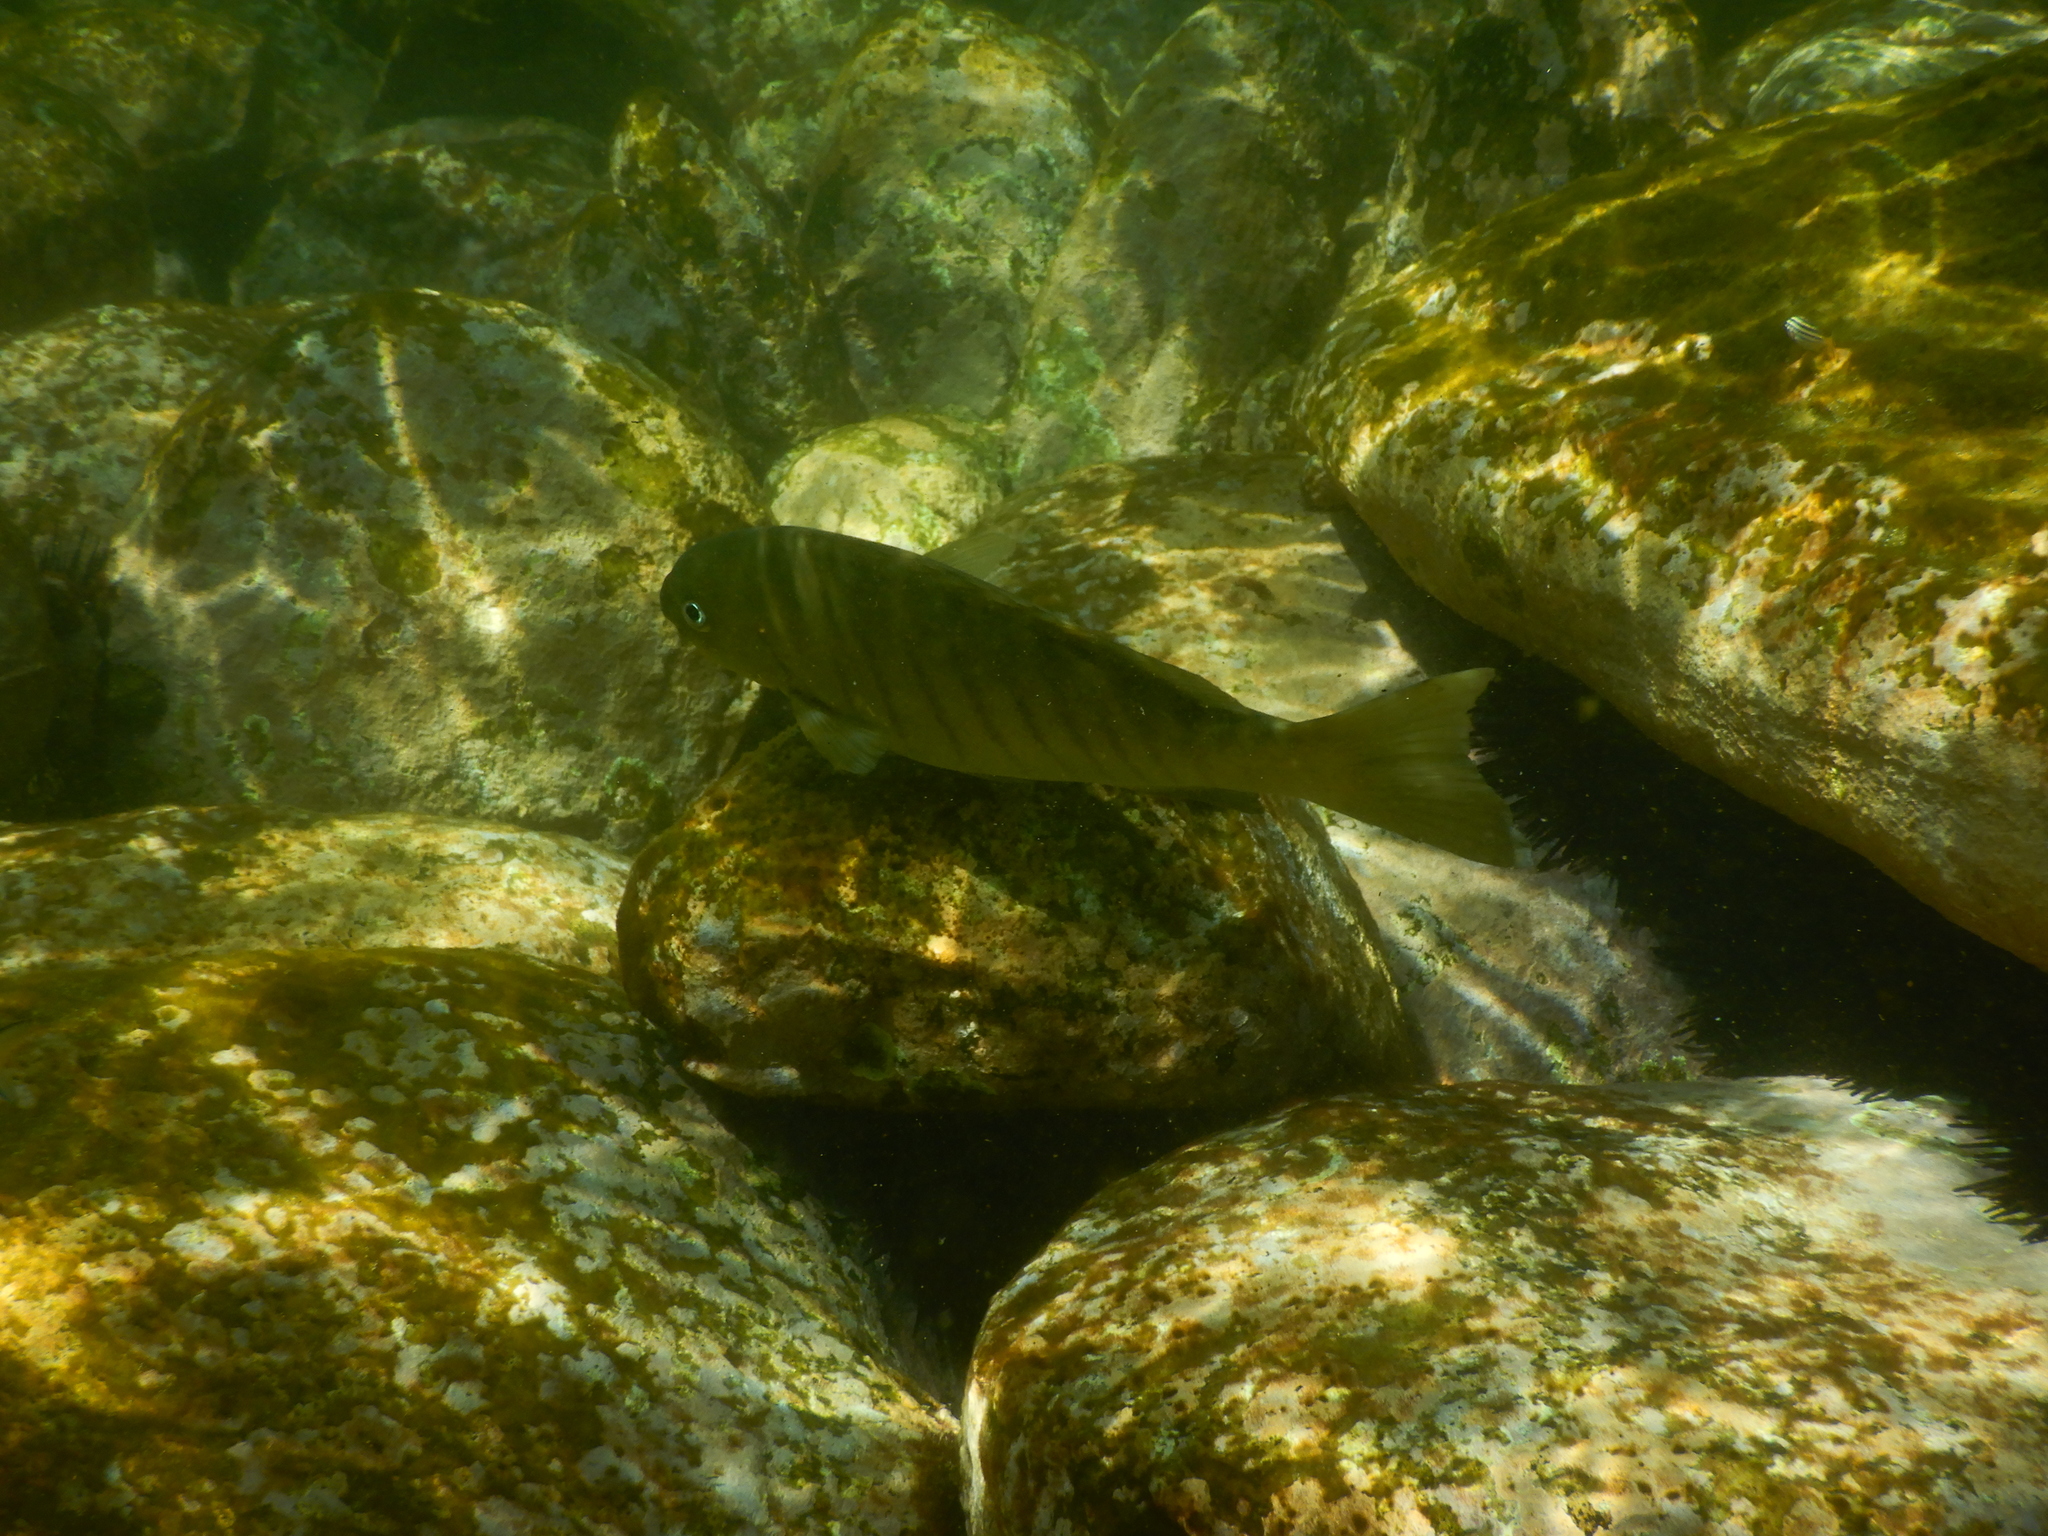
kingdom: Animalia
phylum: Chordata
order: Perciformes
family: Kyphosidae
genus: Girella
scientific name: Girella tricuspidata
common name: Parore
